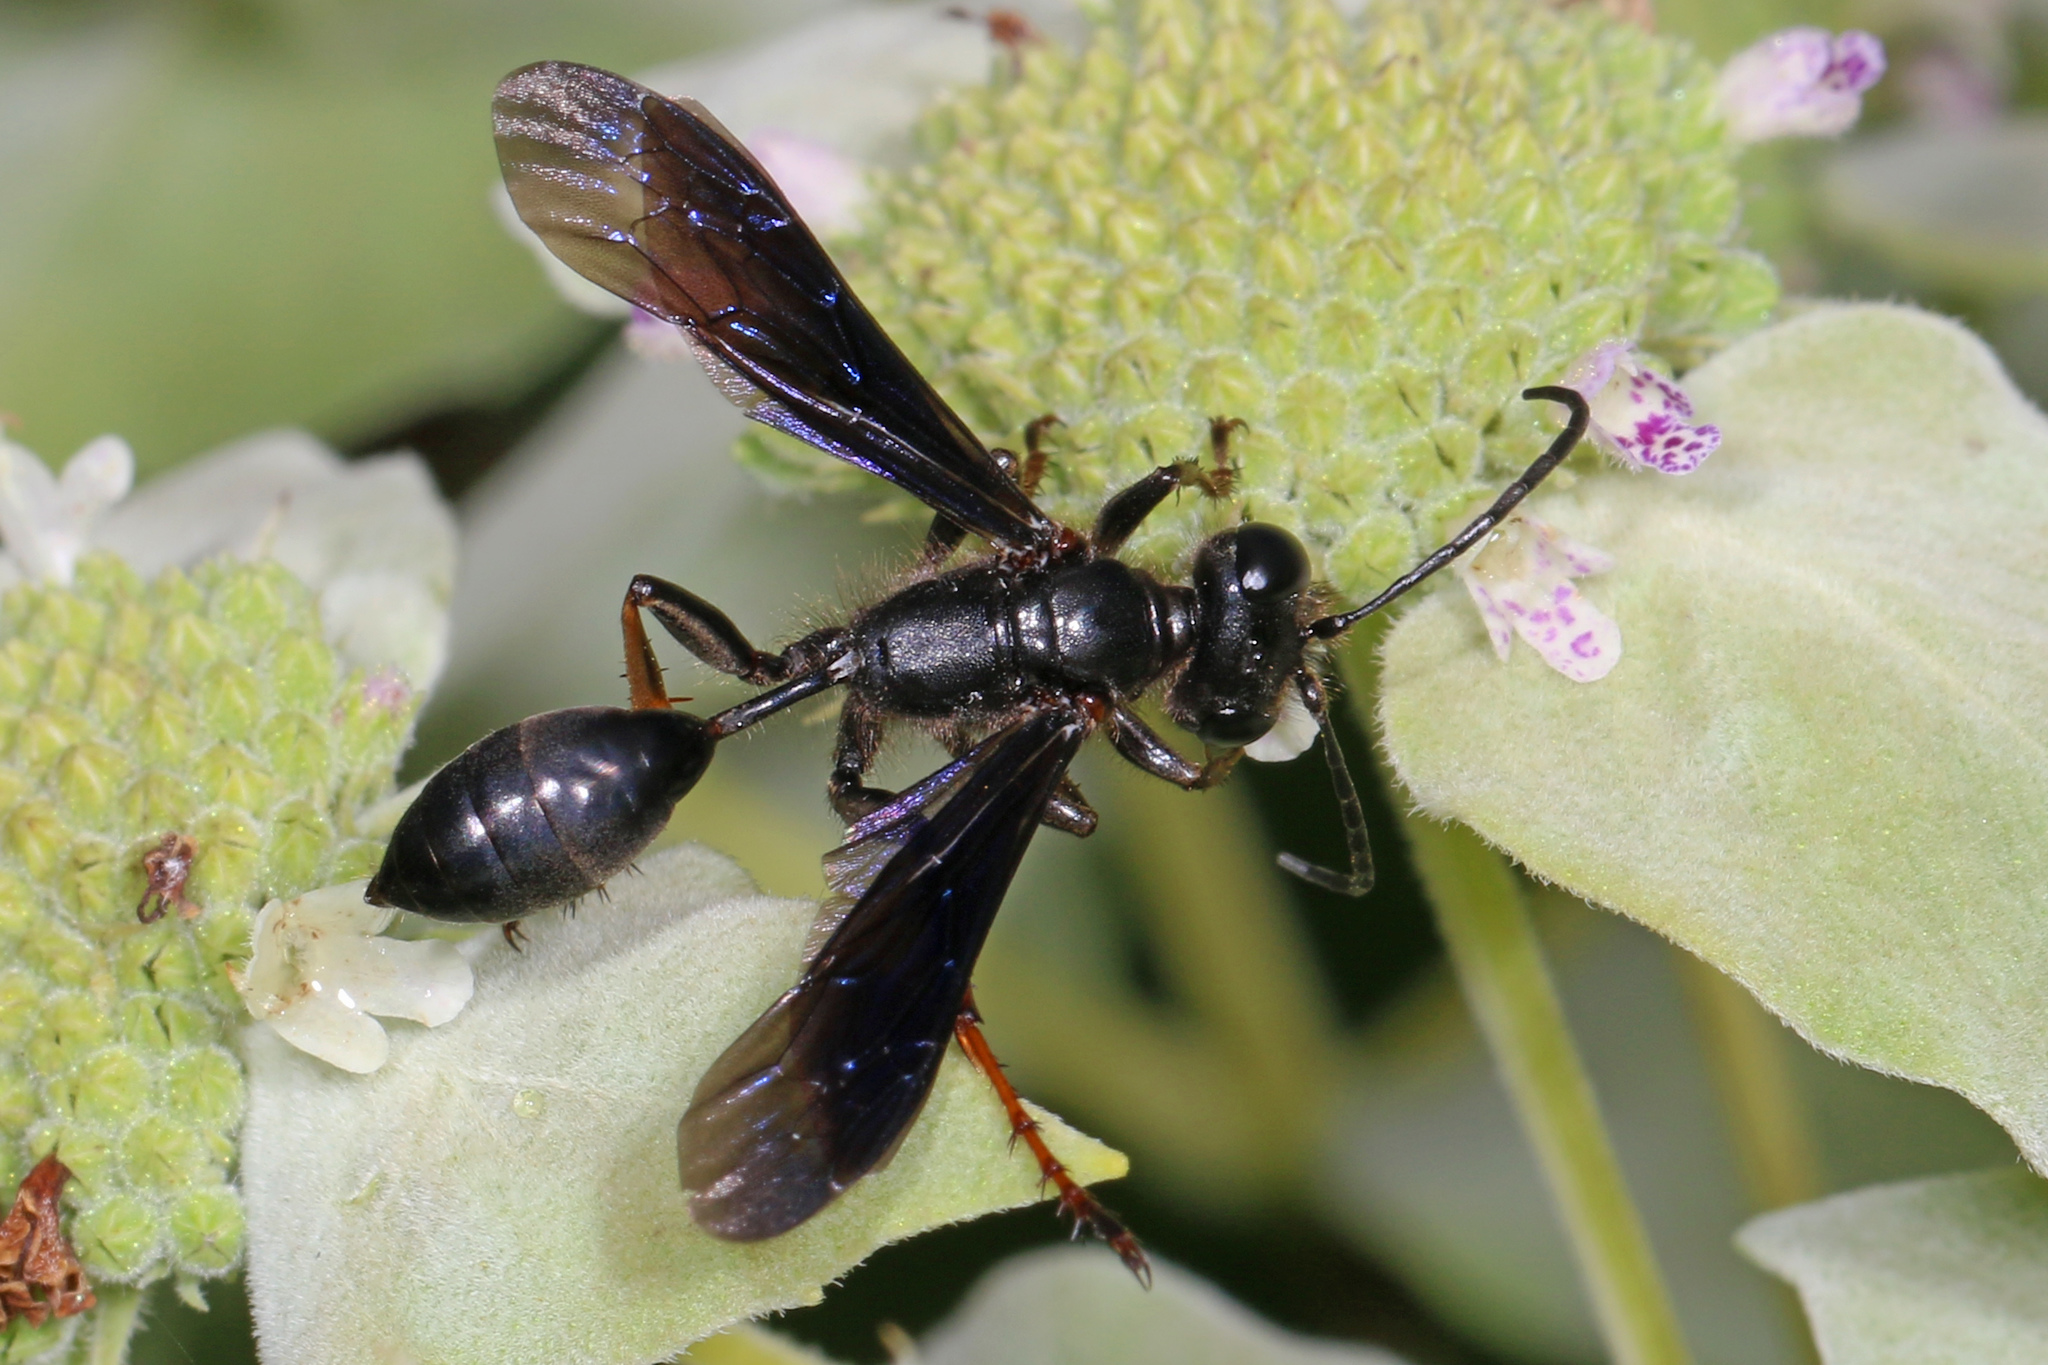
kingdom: Animalia
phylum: Arthropoda
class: Insecta
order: Hymenoptera
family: Sphecidae
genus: Isodontia
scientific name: Isodontia auripes
